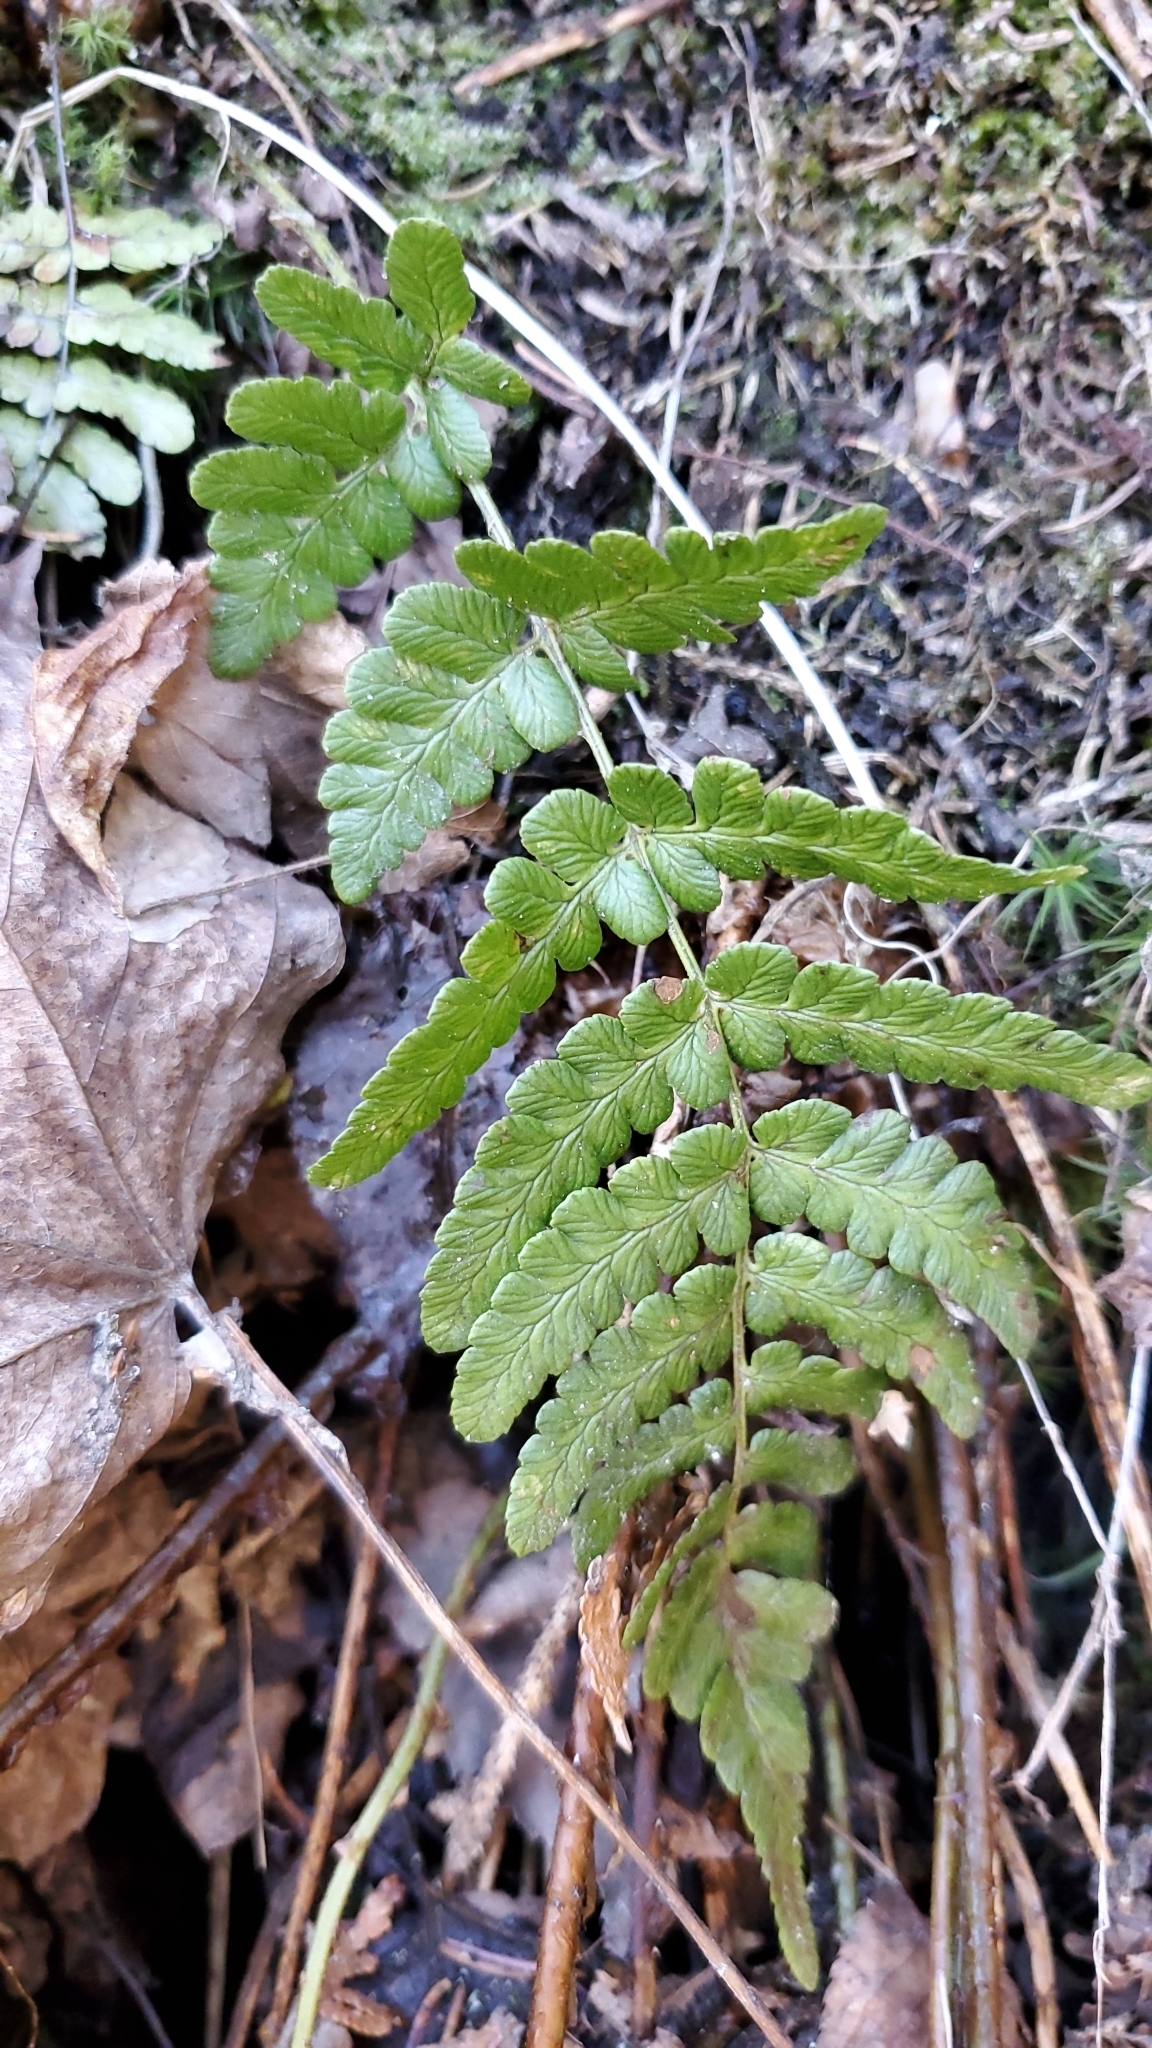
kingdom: Plantae
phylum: Tracheophyta
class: Polypodiopsida
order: Polypodiales
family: Dryopteridaceae
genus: Dryopteris
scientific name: Dryopteris marginalis
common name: Marginal wood fern
